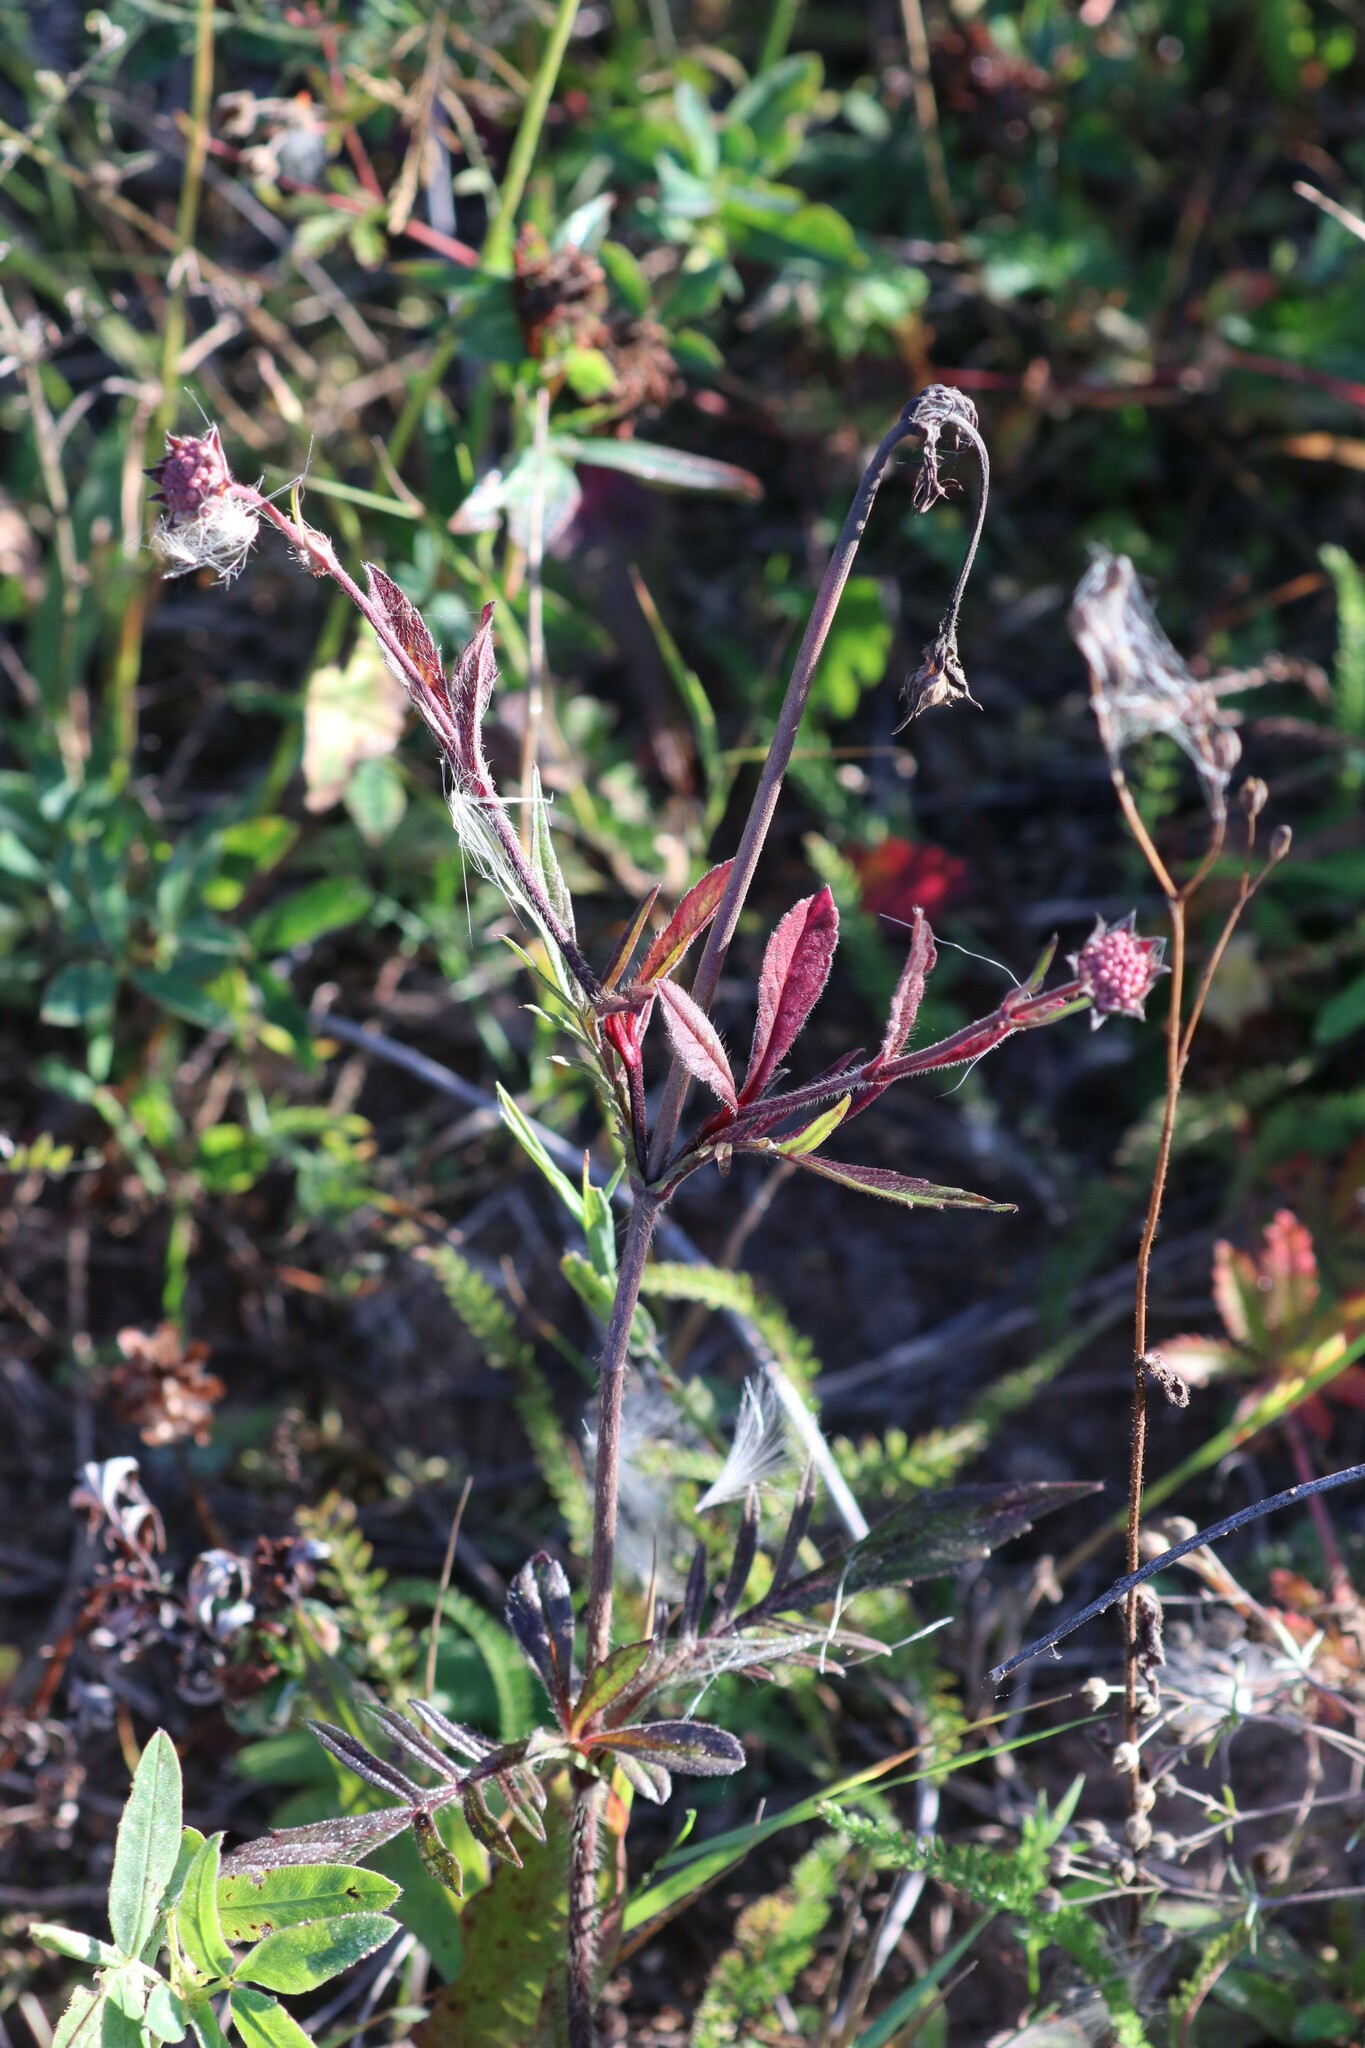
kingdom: Plantae
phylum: Tracheophyta
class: Magnoliopsida
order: Dipsacales
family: Caprifoliaceae
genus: Knautia
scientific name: Knautia arvensis
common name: Field scabiosa
